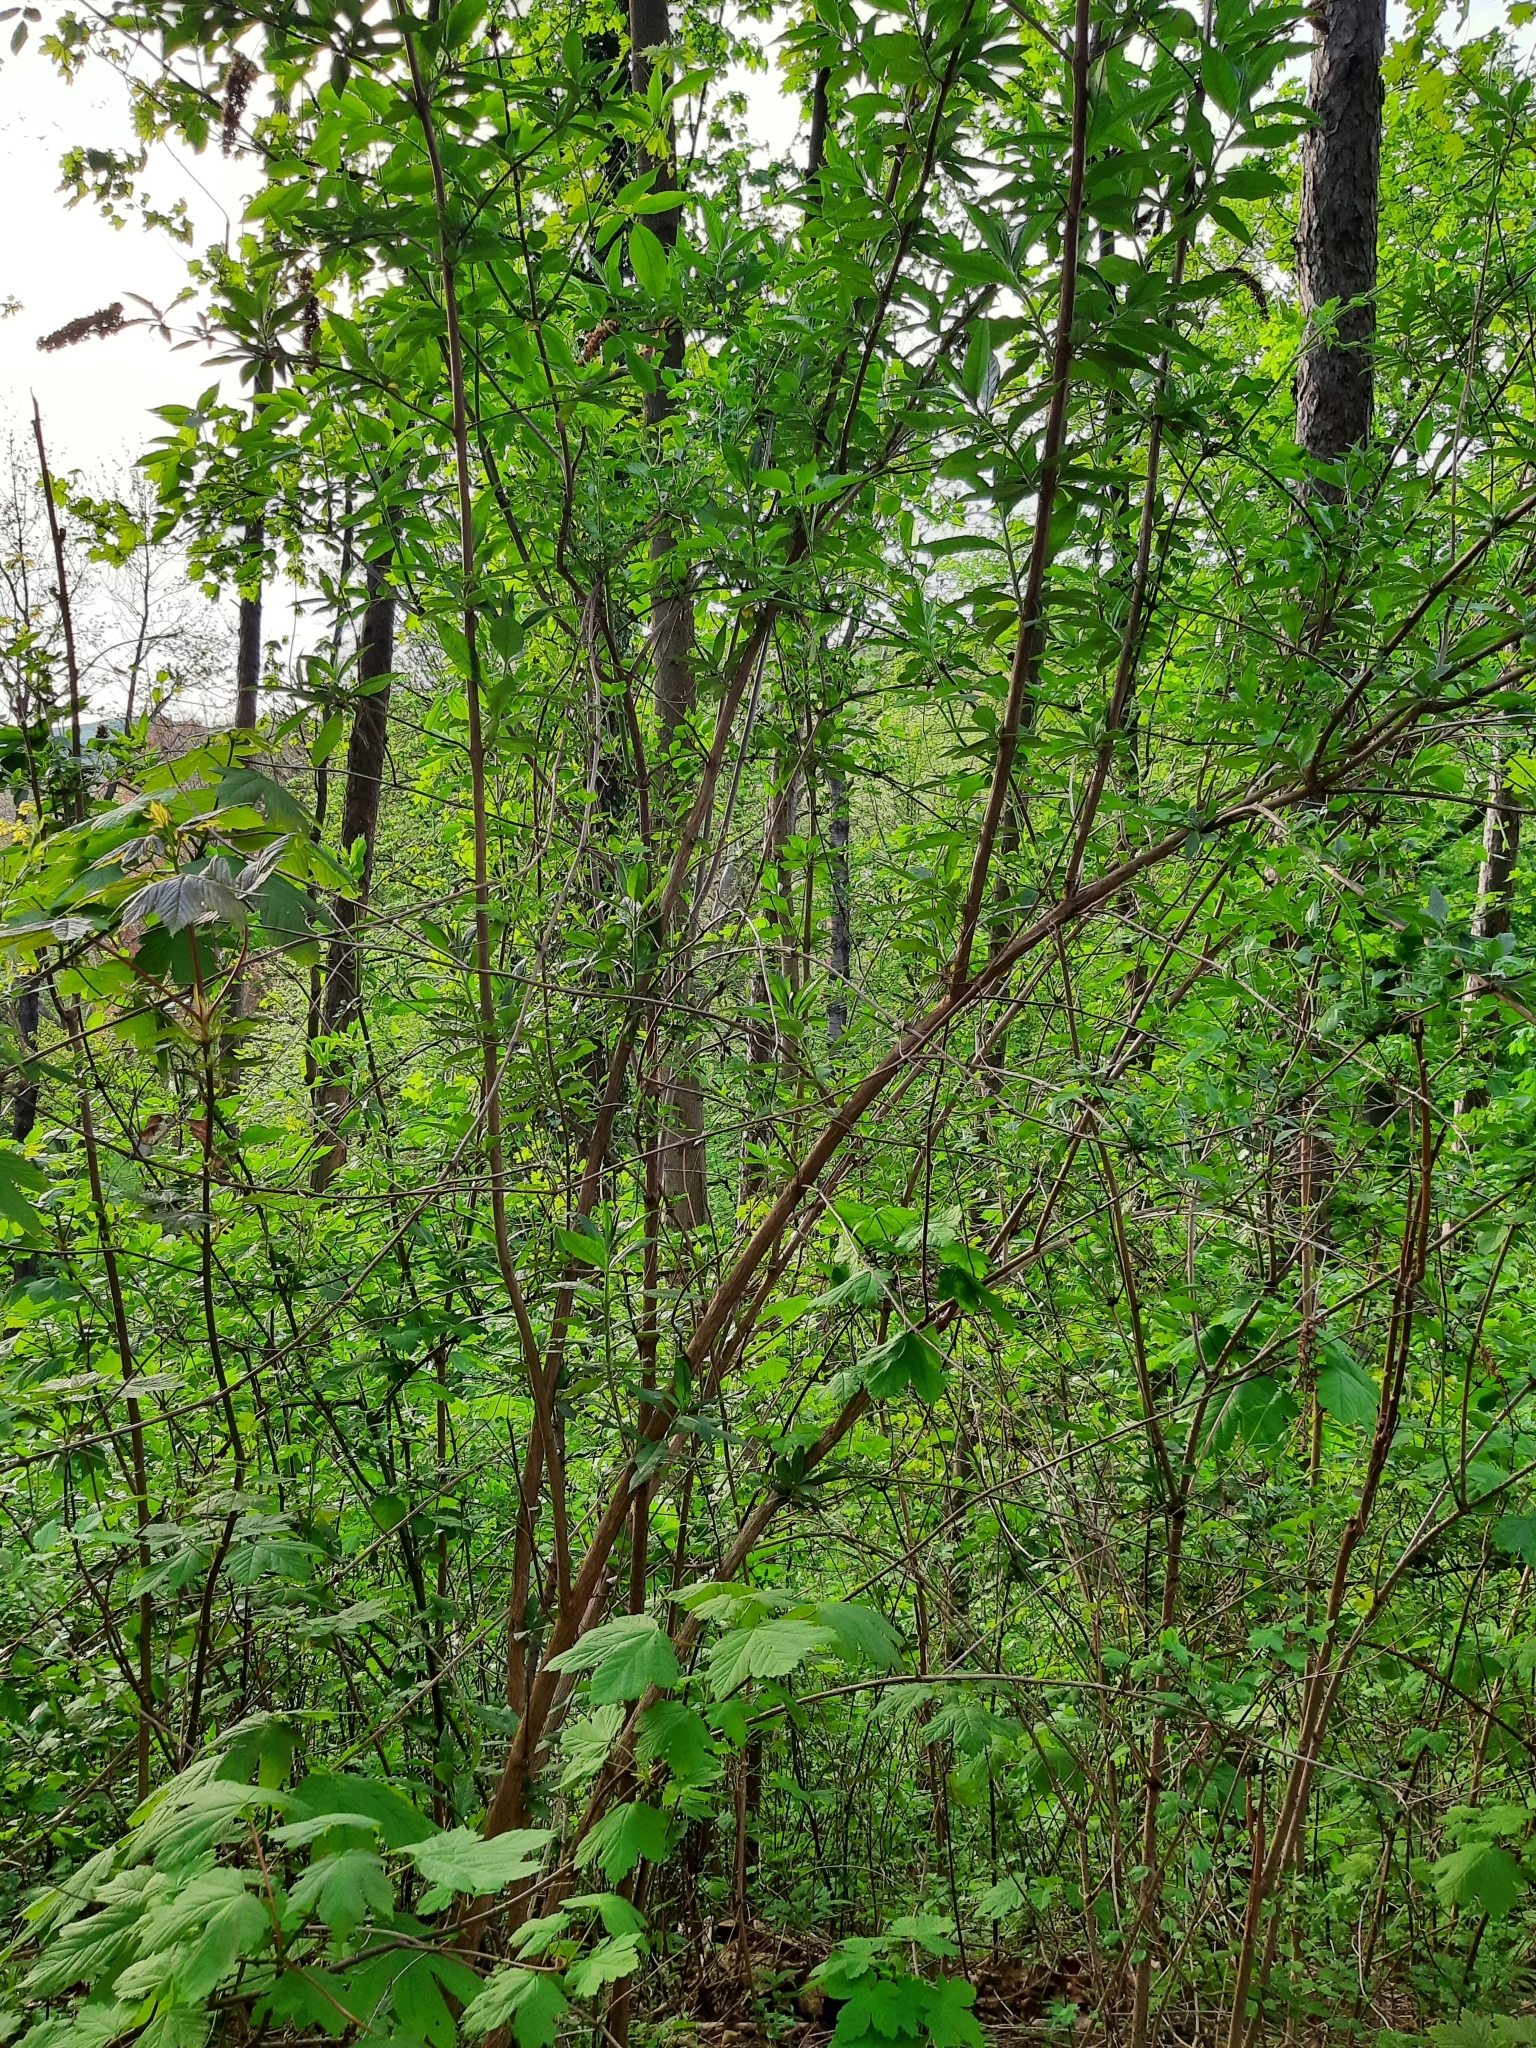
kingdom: Plantae
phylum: Tracheophyta
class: Magnoliopsida
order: Lamiales
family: Scrophulariaceae
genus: Buddleja
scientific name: Buddleja davidii
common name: Butterfly-bush
